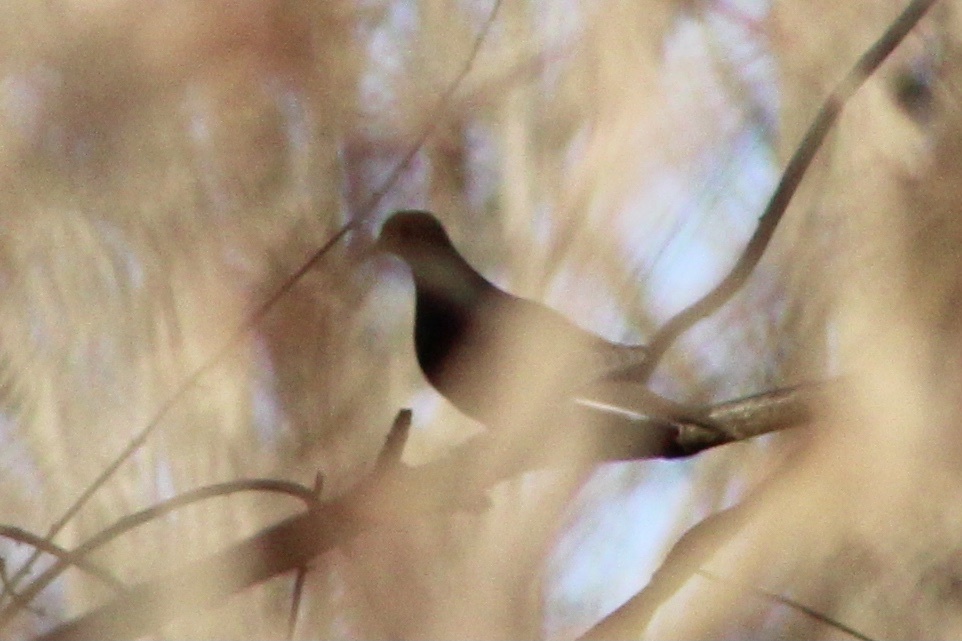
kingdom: Animalia
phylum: Chordata
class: Aves
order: Columbiformes
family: Columbidae
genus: Zenaida
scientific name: Zenaida macroura
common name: Mourning dove
